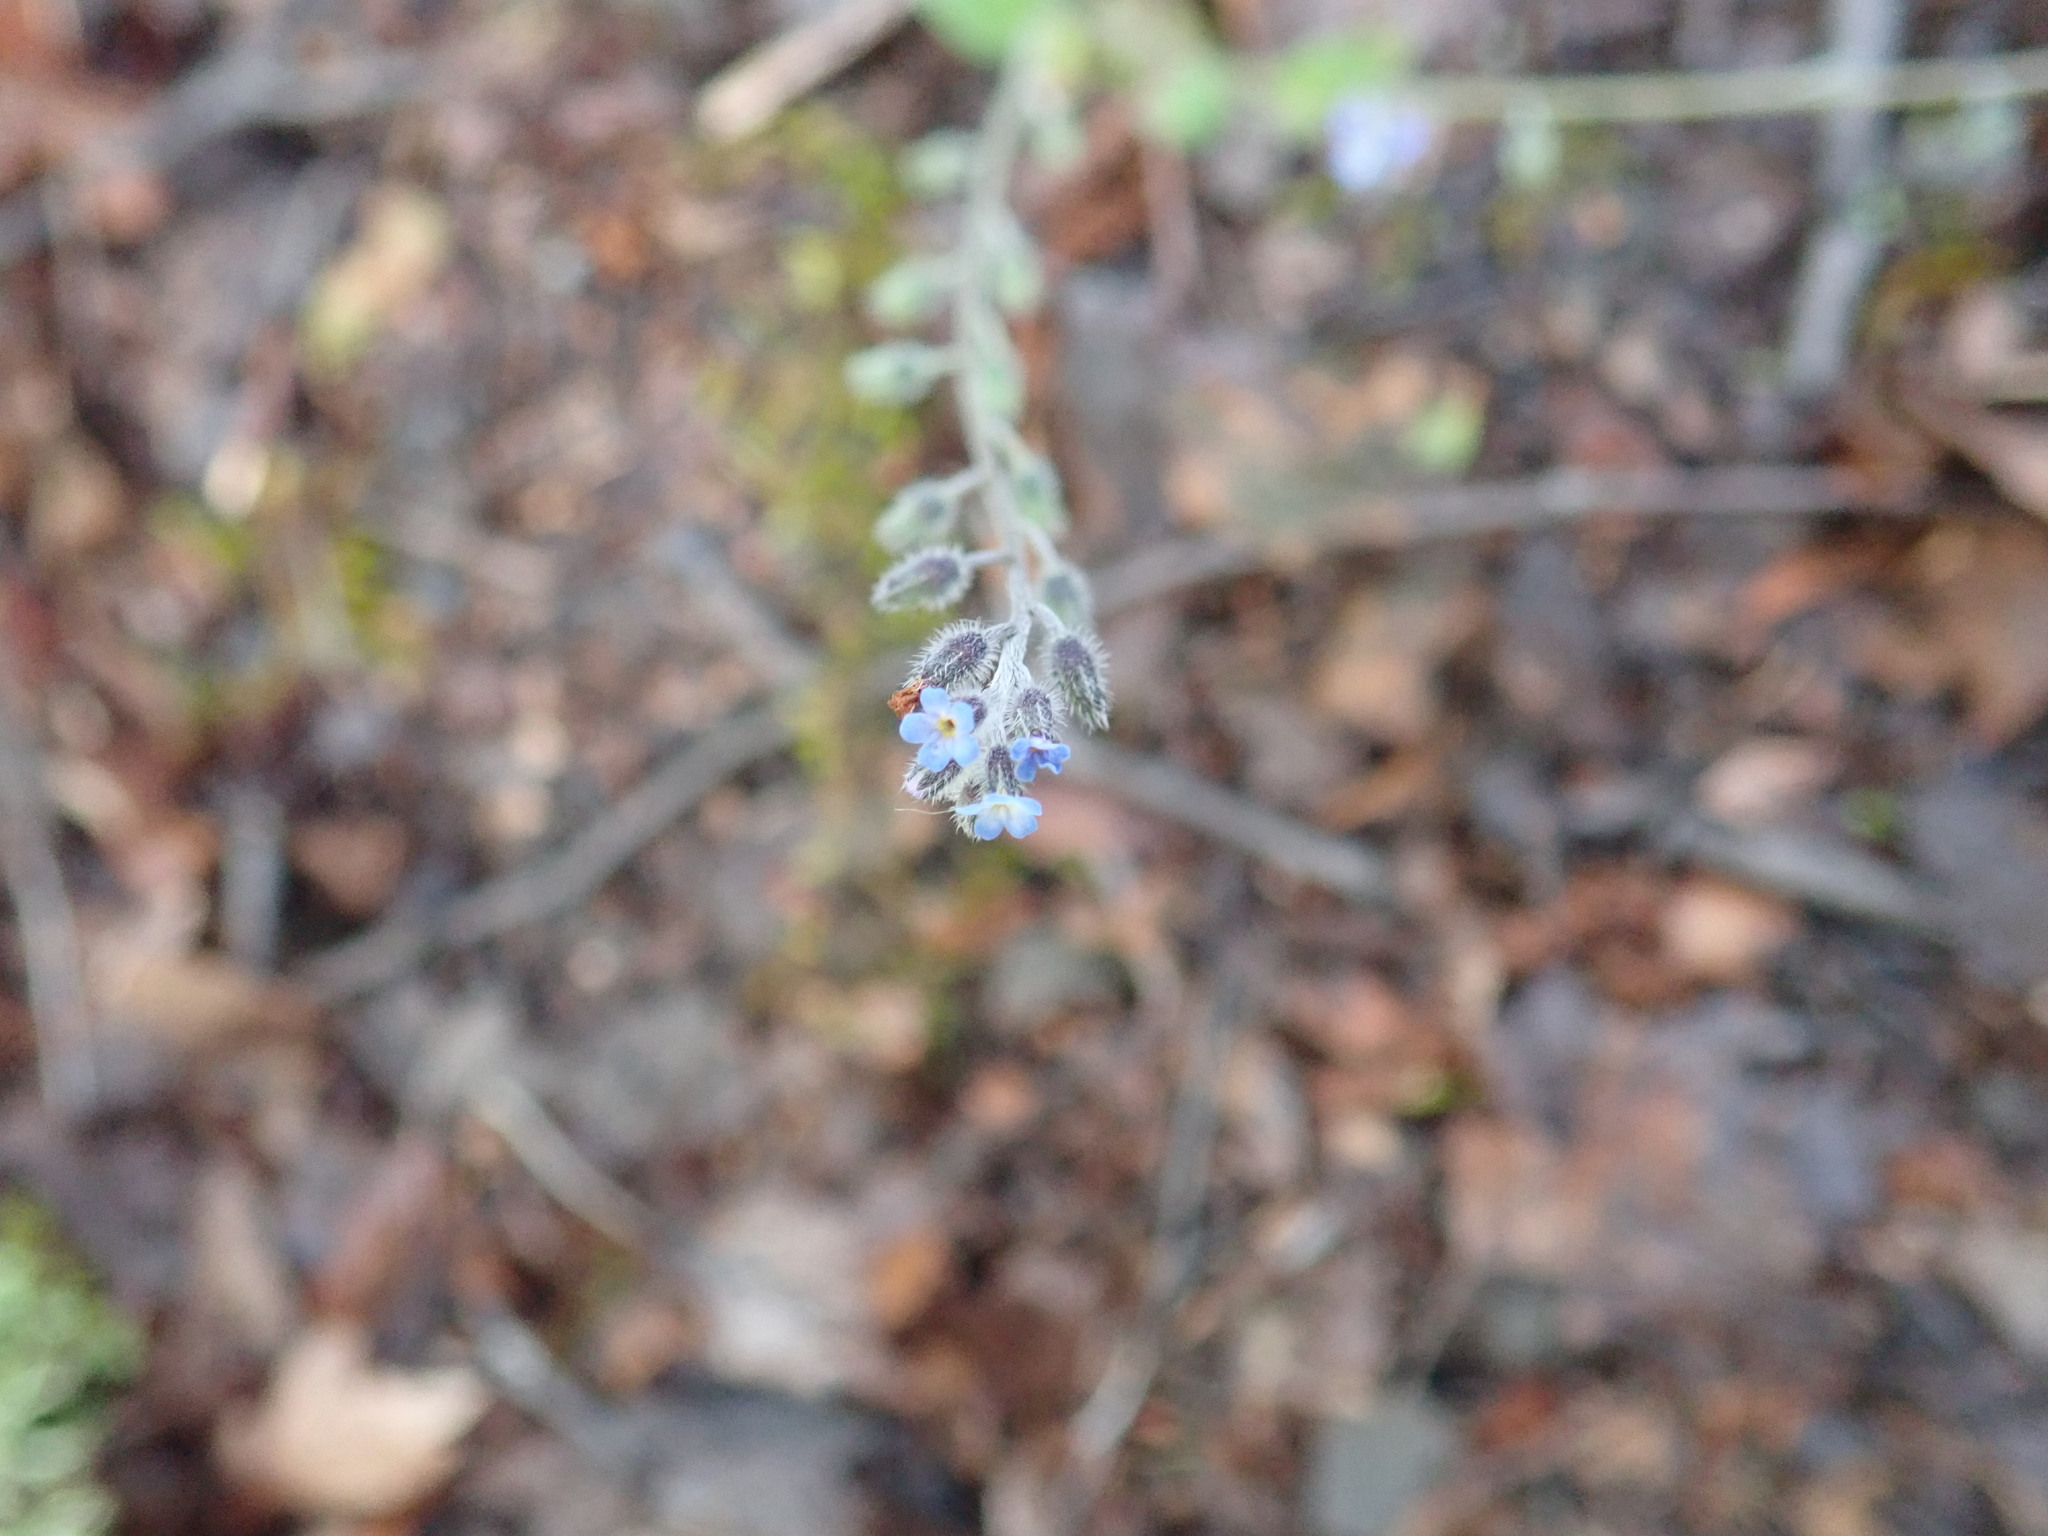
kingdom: Plantae
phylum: Tracheophyta
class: Magnoliopsida
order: Boraginales
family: Boraginaceae
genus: Myosotis
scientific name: Myosotis ramosissima
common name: Early forget-me-not
